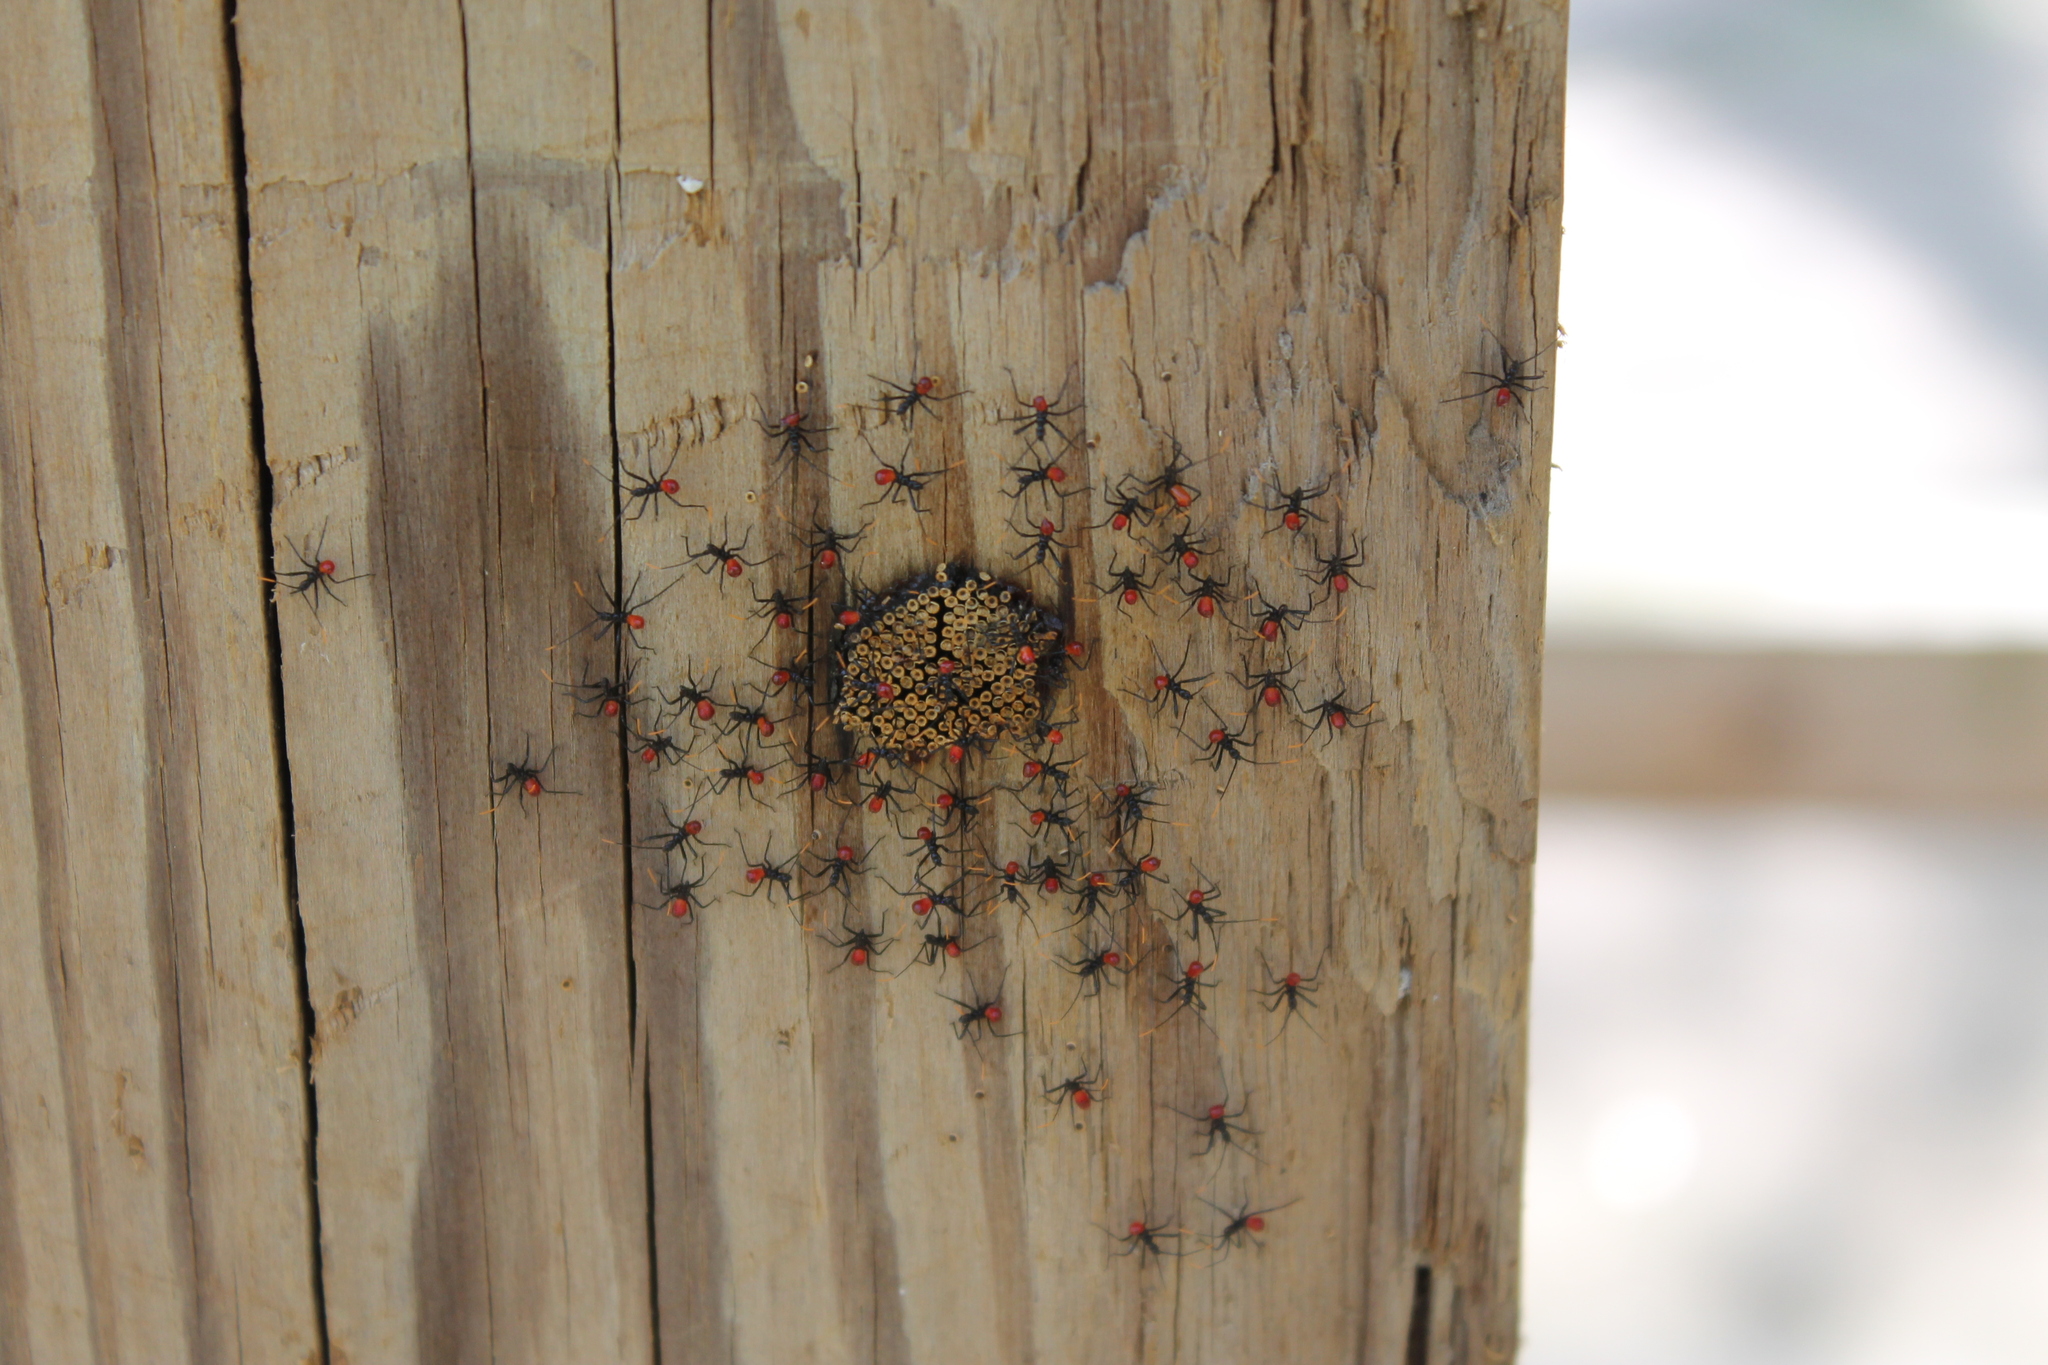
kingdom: Animalia
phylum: Arthropoda
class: Insecta
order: Hemiptera
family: Reduviidae
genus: Arilus
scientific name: Arilus cristatus
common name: North american wheel bug
